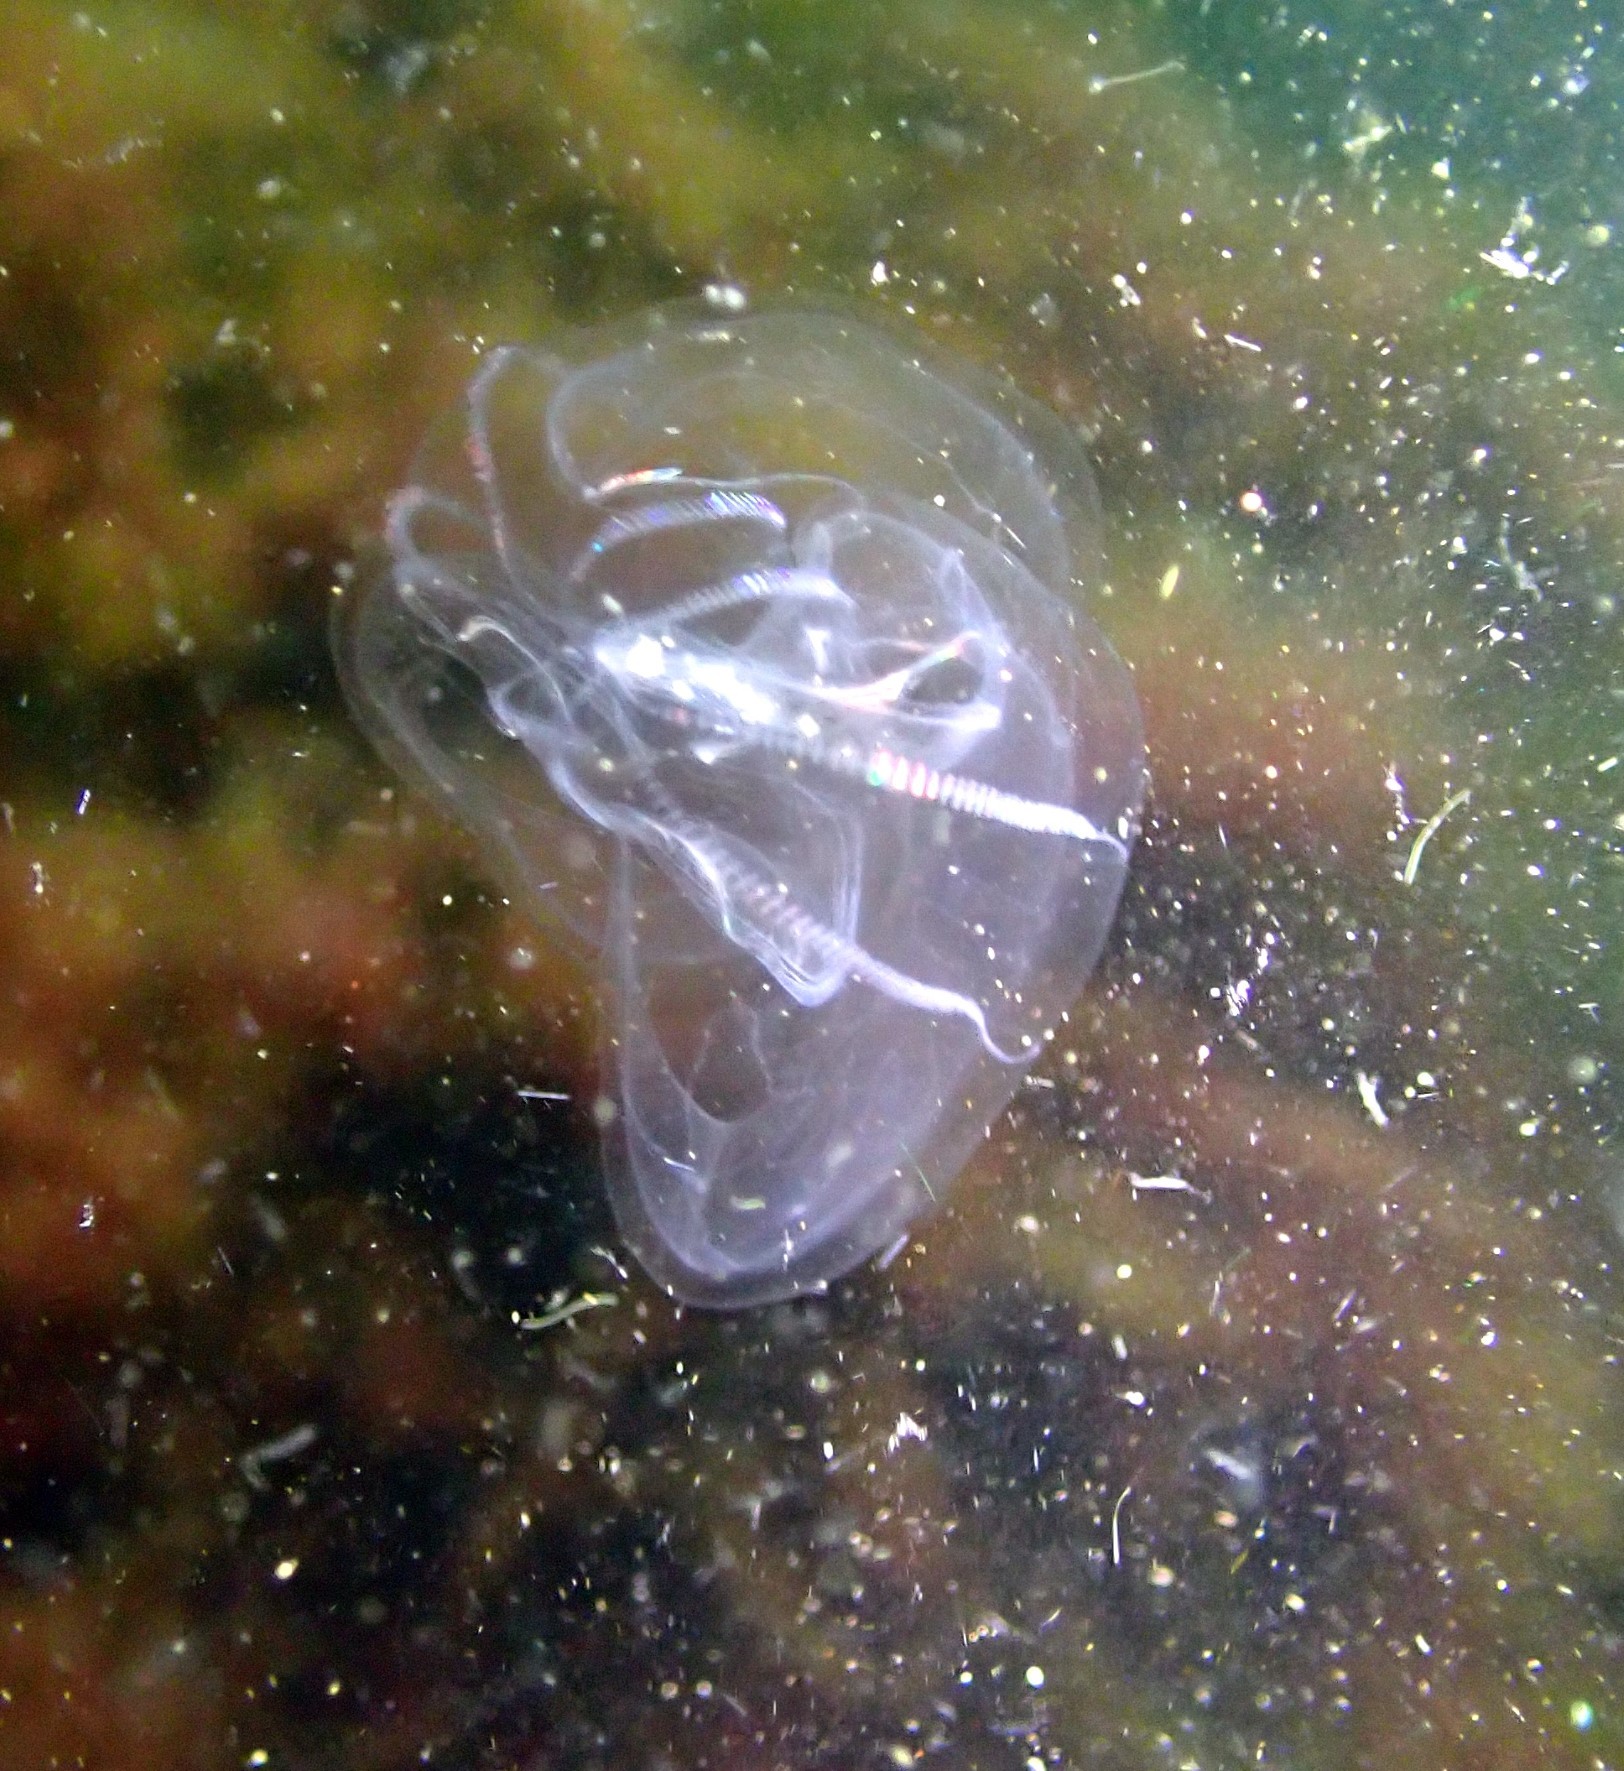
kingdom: Animalia
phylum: Ctenophora
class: Tentaculata
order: Lobata
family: Bolinopsidae
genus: Mnemiopsis
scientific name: Mnemiopsis leidyi
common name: American comb jelly
